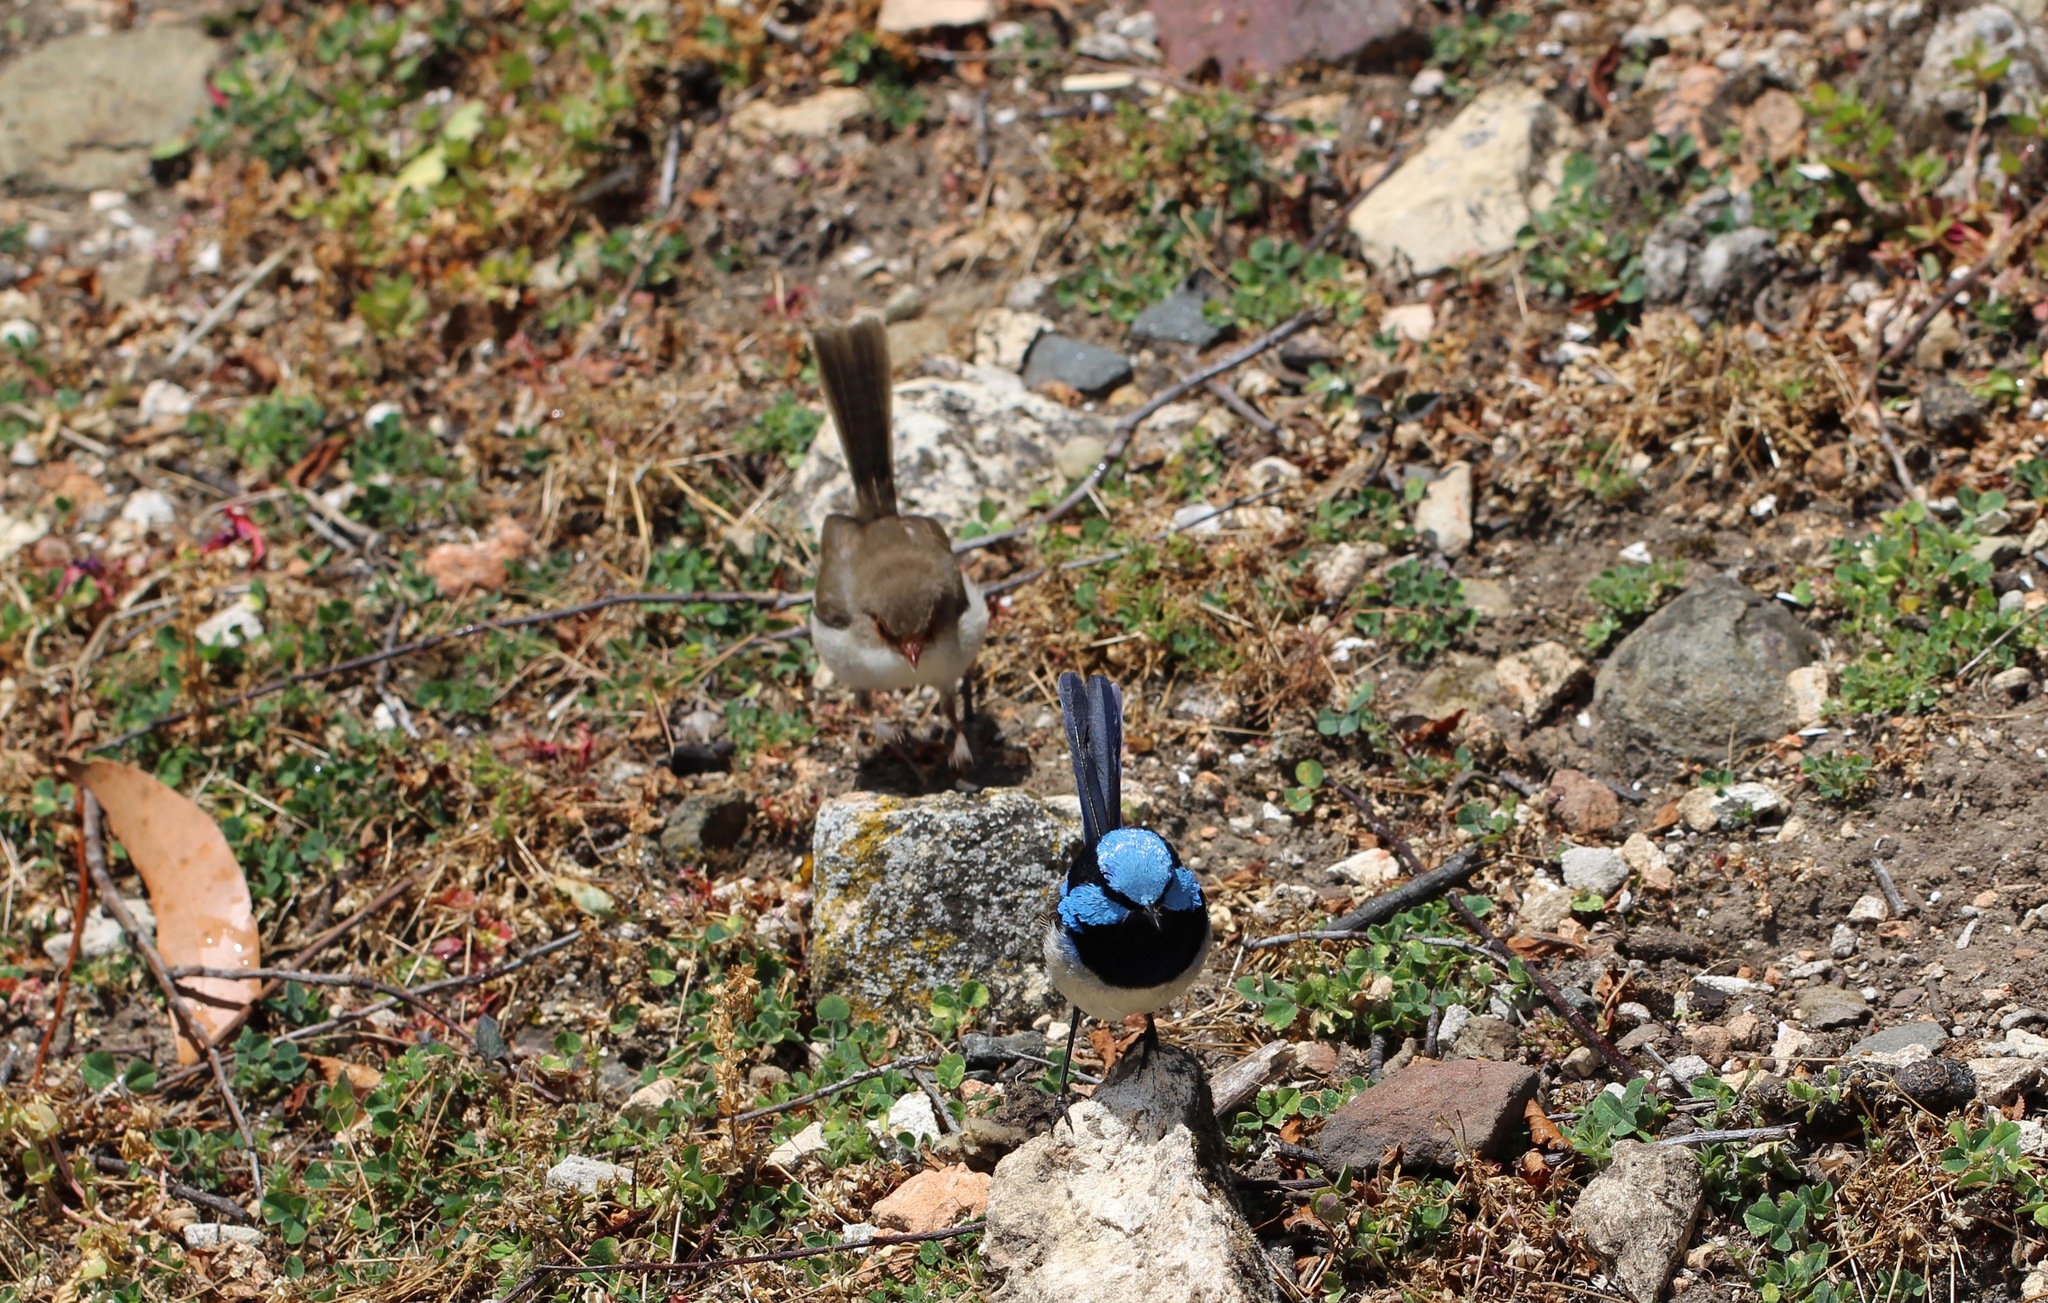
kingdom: Animalia
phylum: Chordata
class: Aves
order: Passeriformes
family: Maluridae
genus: Malurus
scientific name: Malurus cyaneus
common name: Superb fairywren
